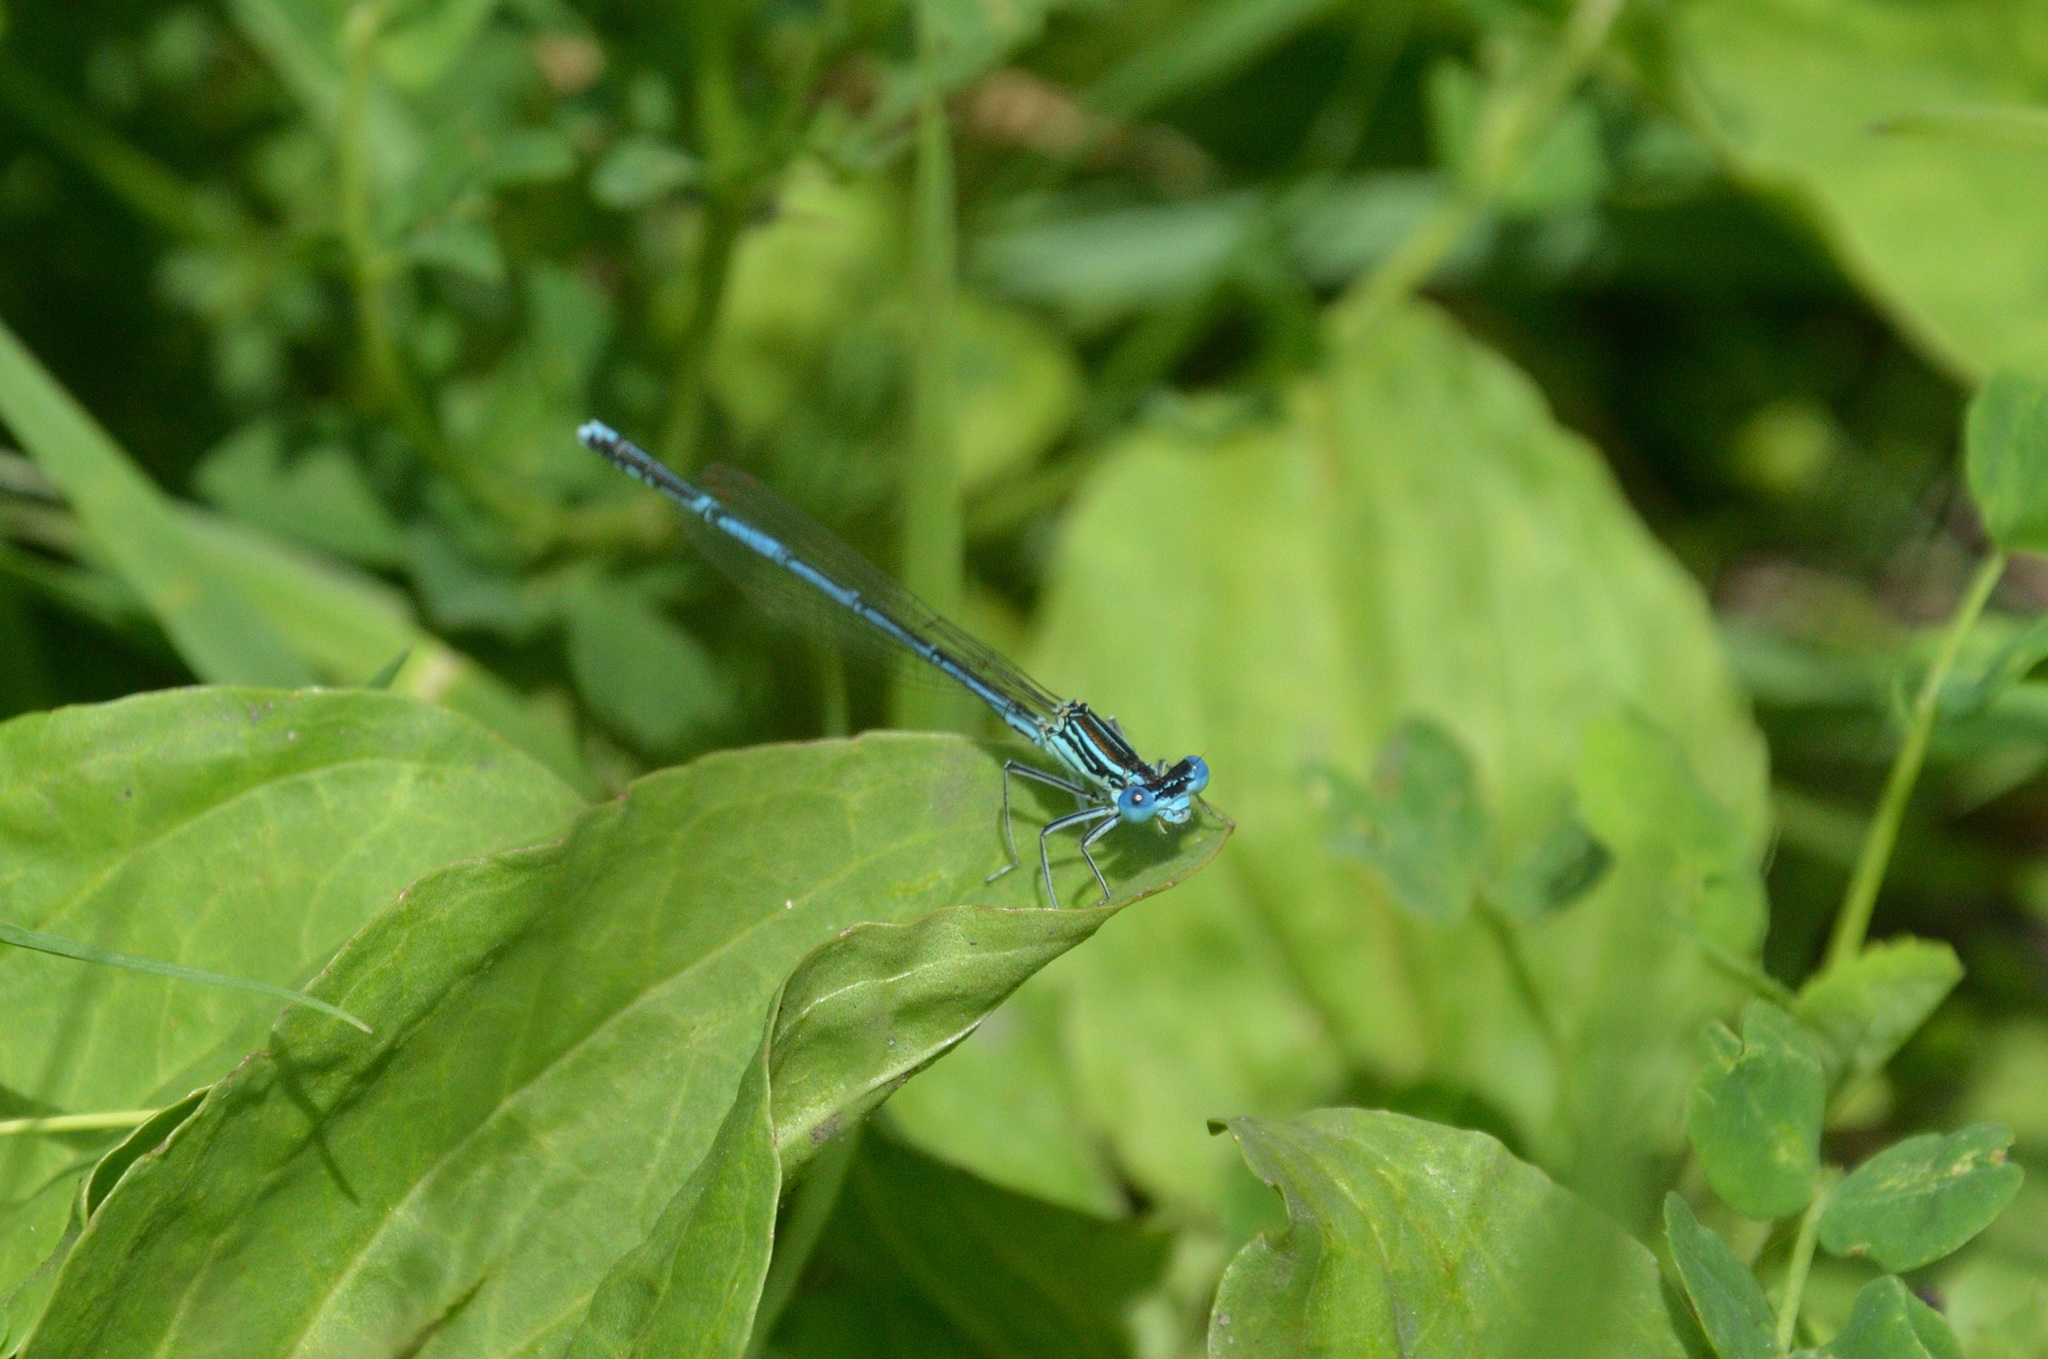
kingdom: Animalia
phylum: Arthropoda
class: Insecta
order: Odonata
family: Platycnemididae
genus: Platycnemis
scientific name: Platycnemis pennipes
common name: White-legged damselfly
